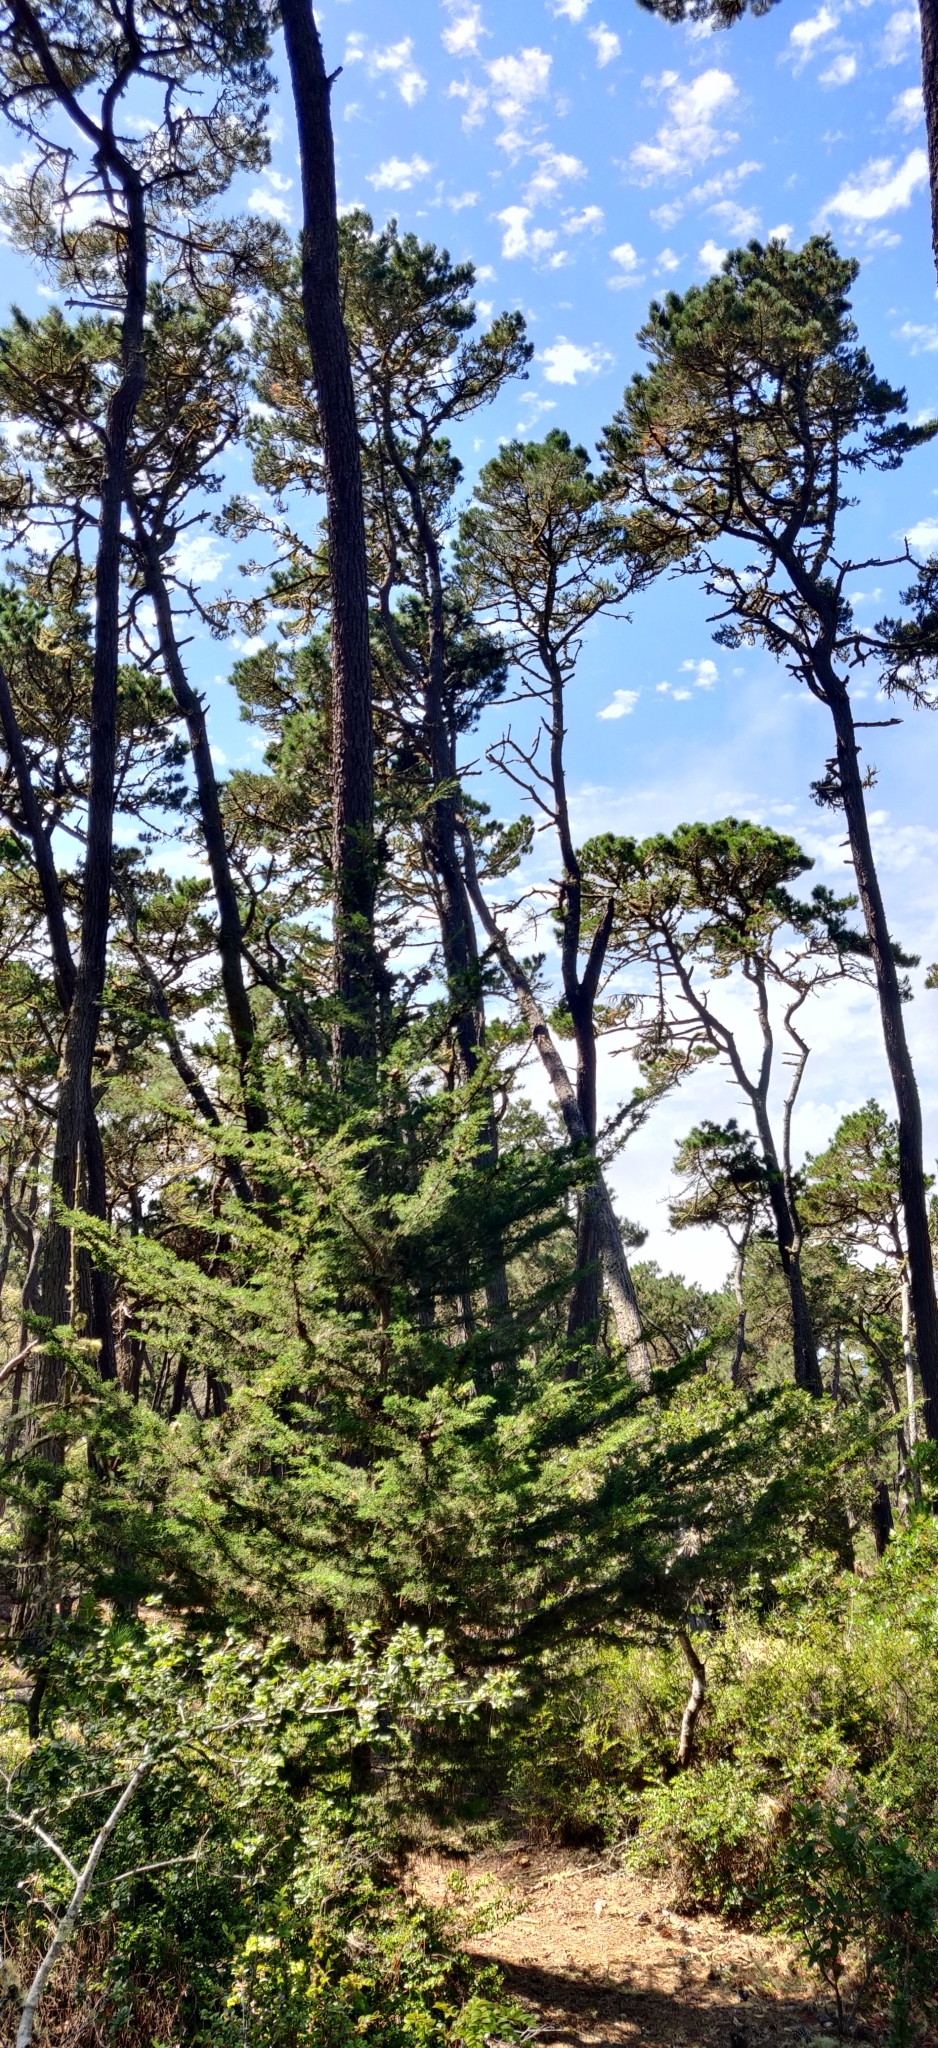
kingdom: Plantae
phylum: Tracheophyta
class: Pinopsida
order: Pinales
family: Cupressaceae
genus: Cupressus
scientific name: Cupressus goveniana
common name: Gowen cypress
